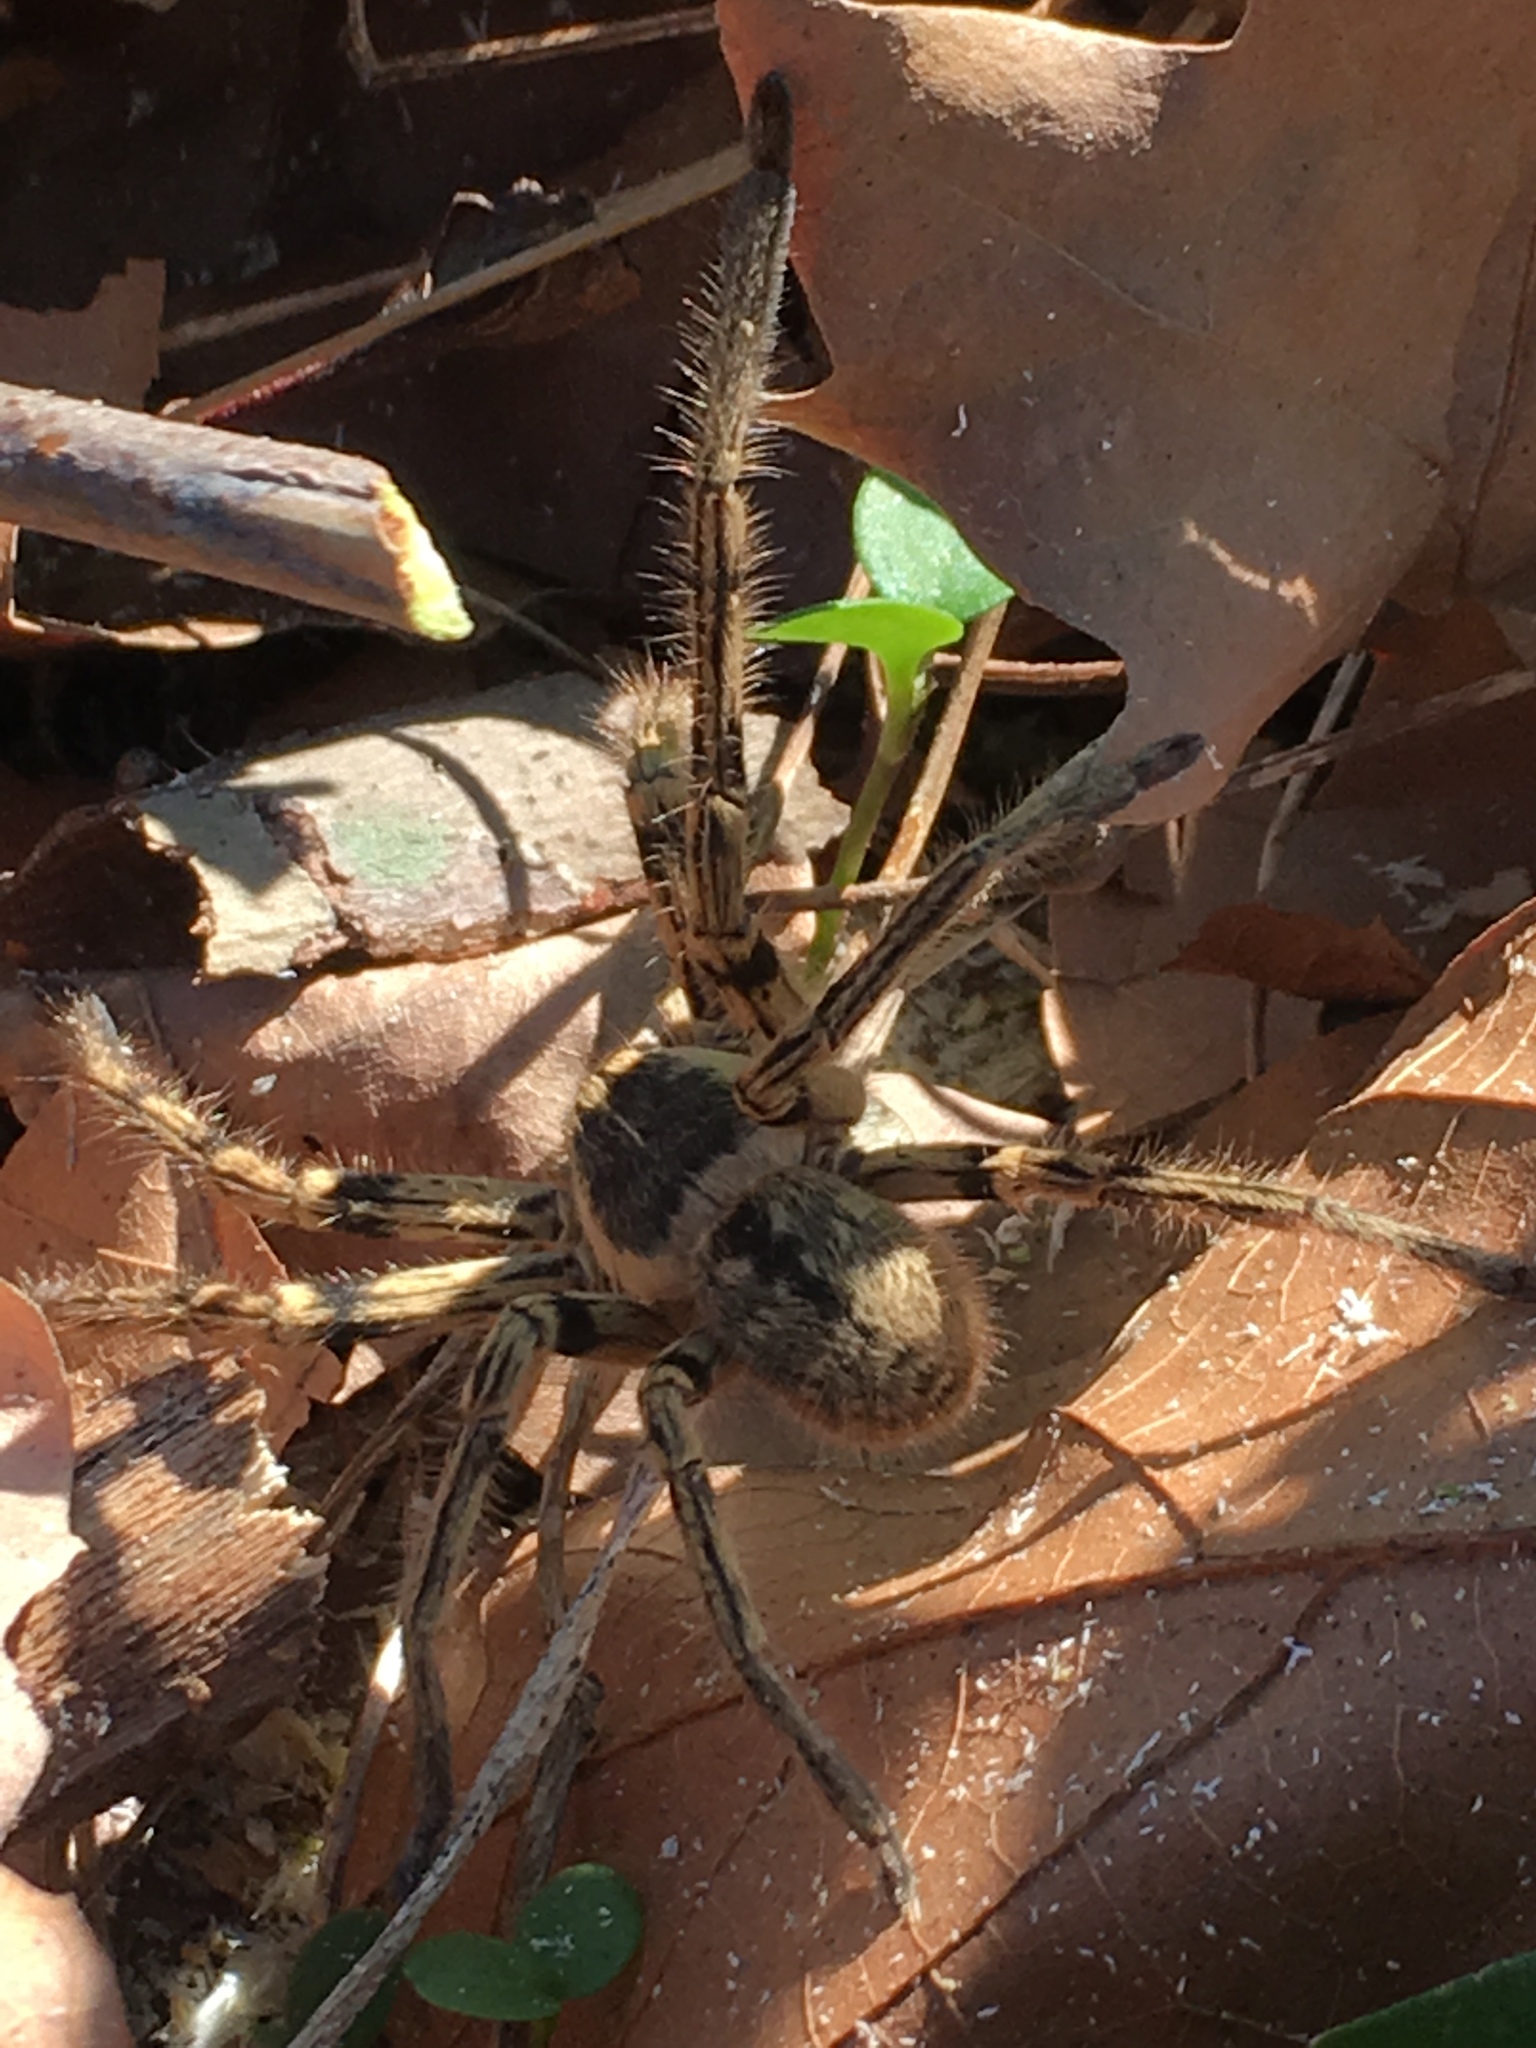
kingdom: Animalia
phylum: Arthropoda
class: Arachnida
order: Araneae
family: Sparassidae
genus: Polybetes
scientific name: Polybetes pythagoricus
